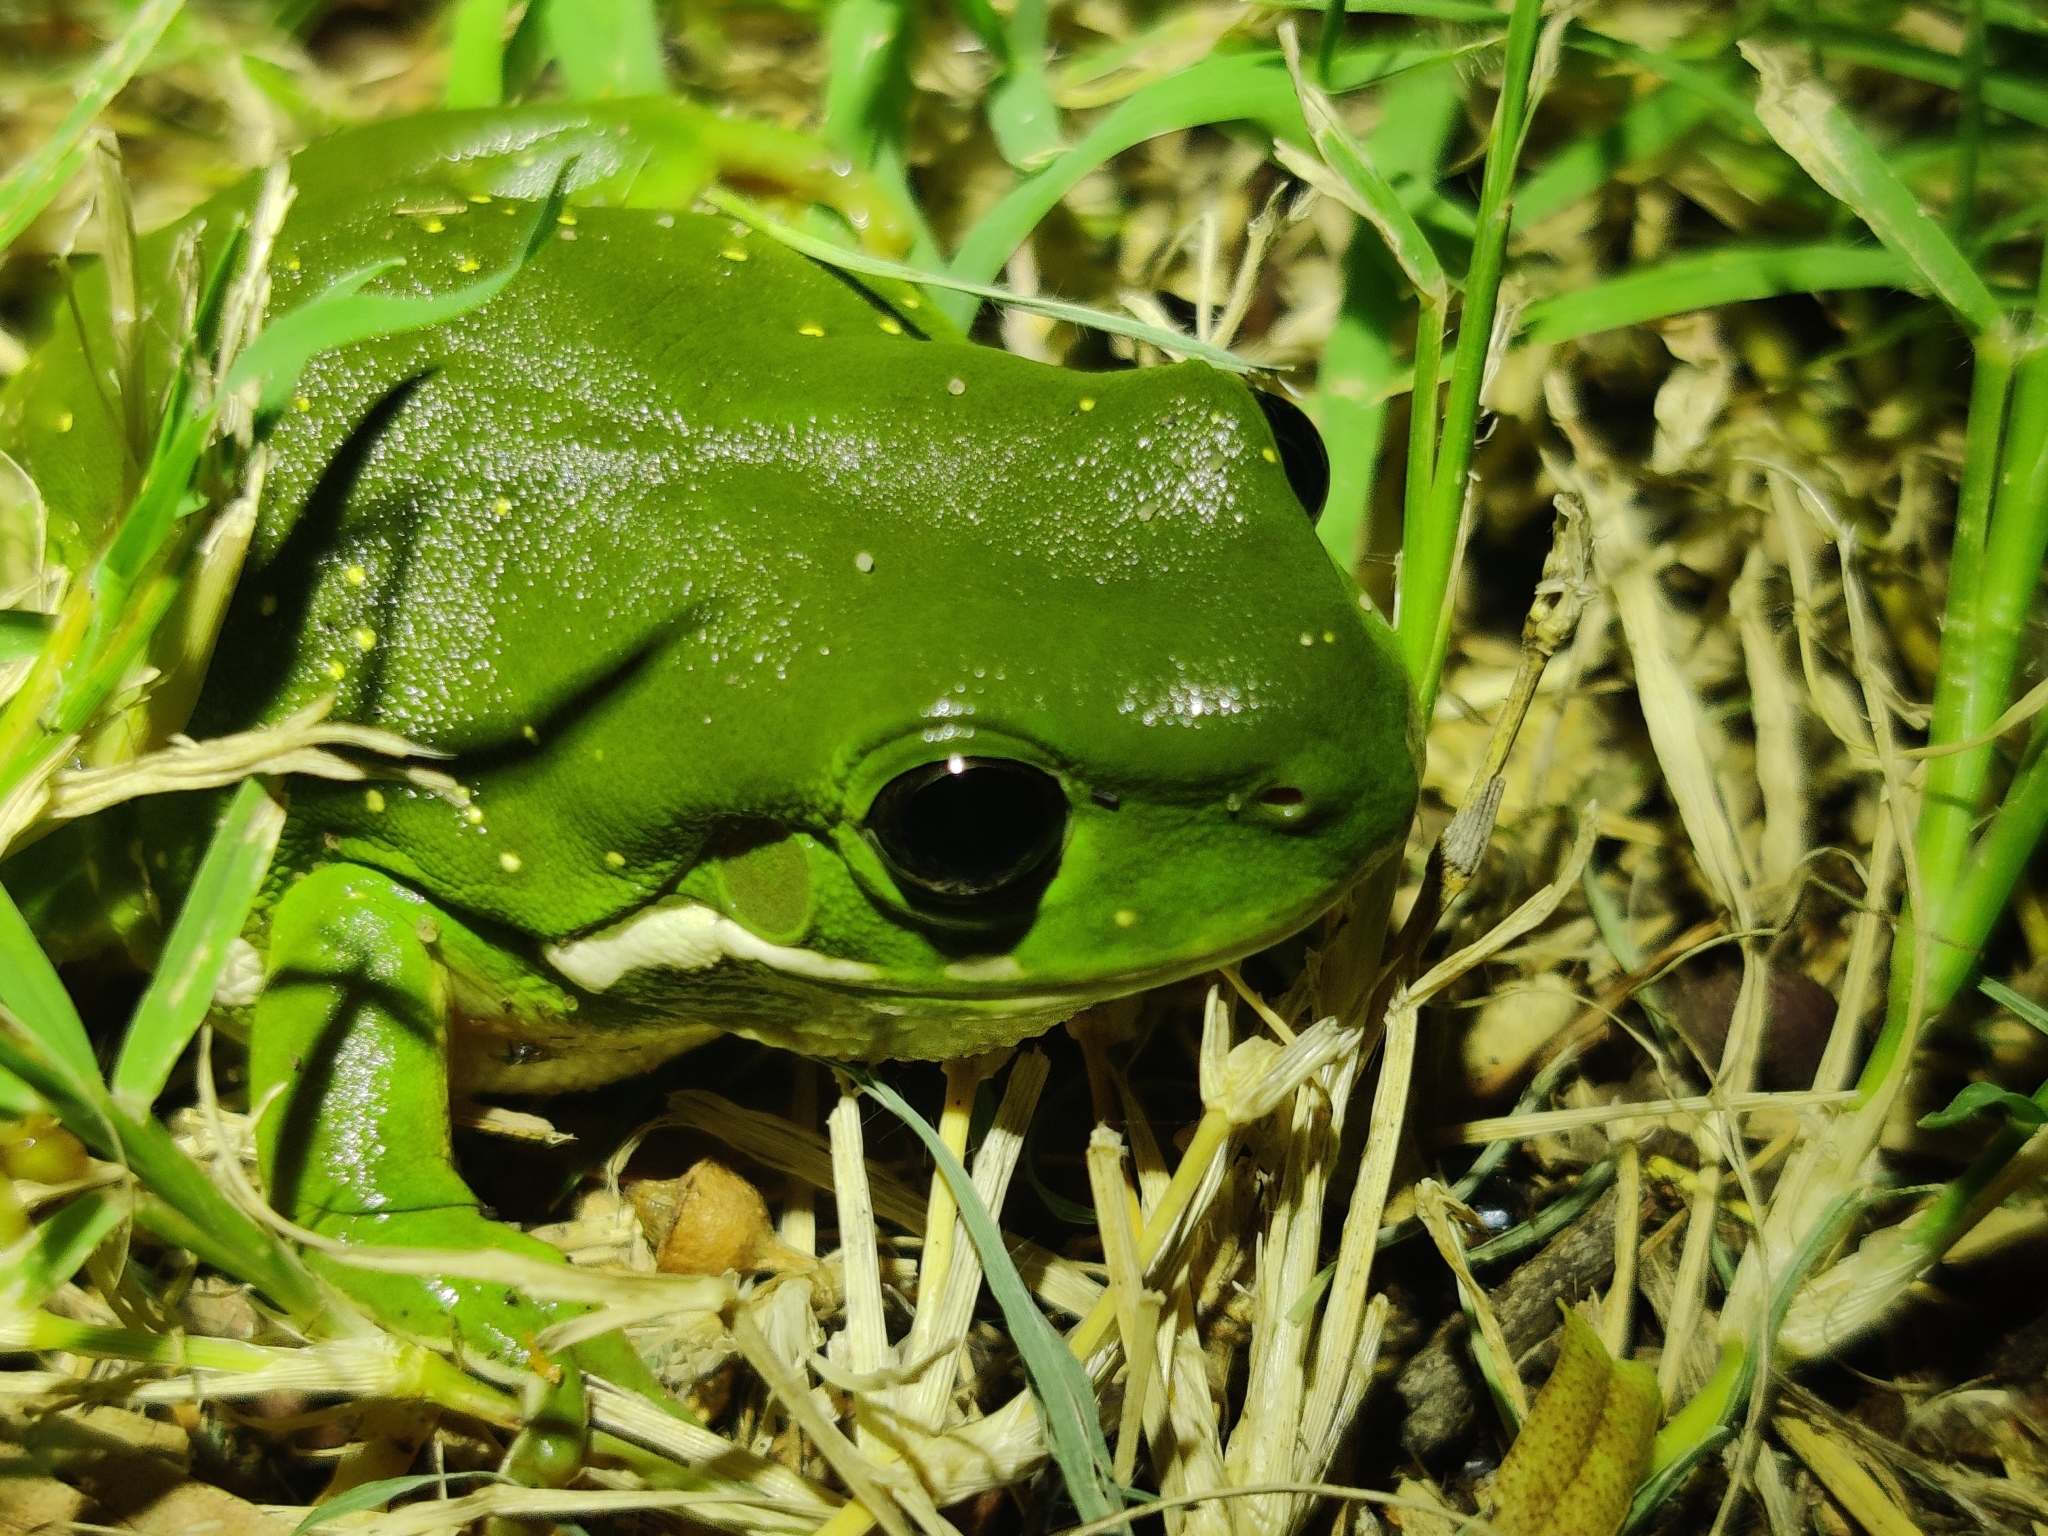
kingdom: Animalia
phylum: Chordata
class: Amphibia
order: Anura
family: Pelodryadidae
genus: Ranoidea
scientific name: Ranoidea caerulea
